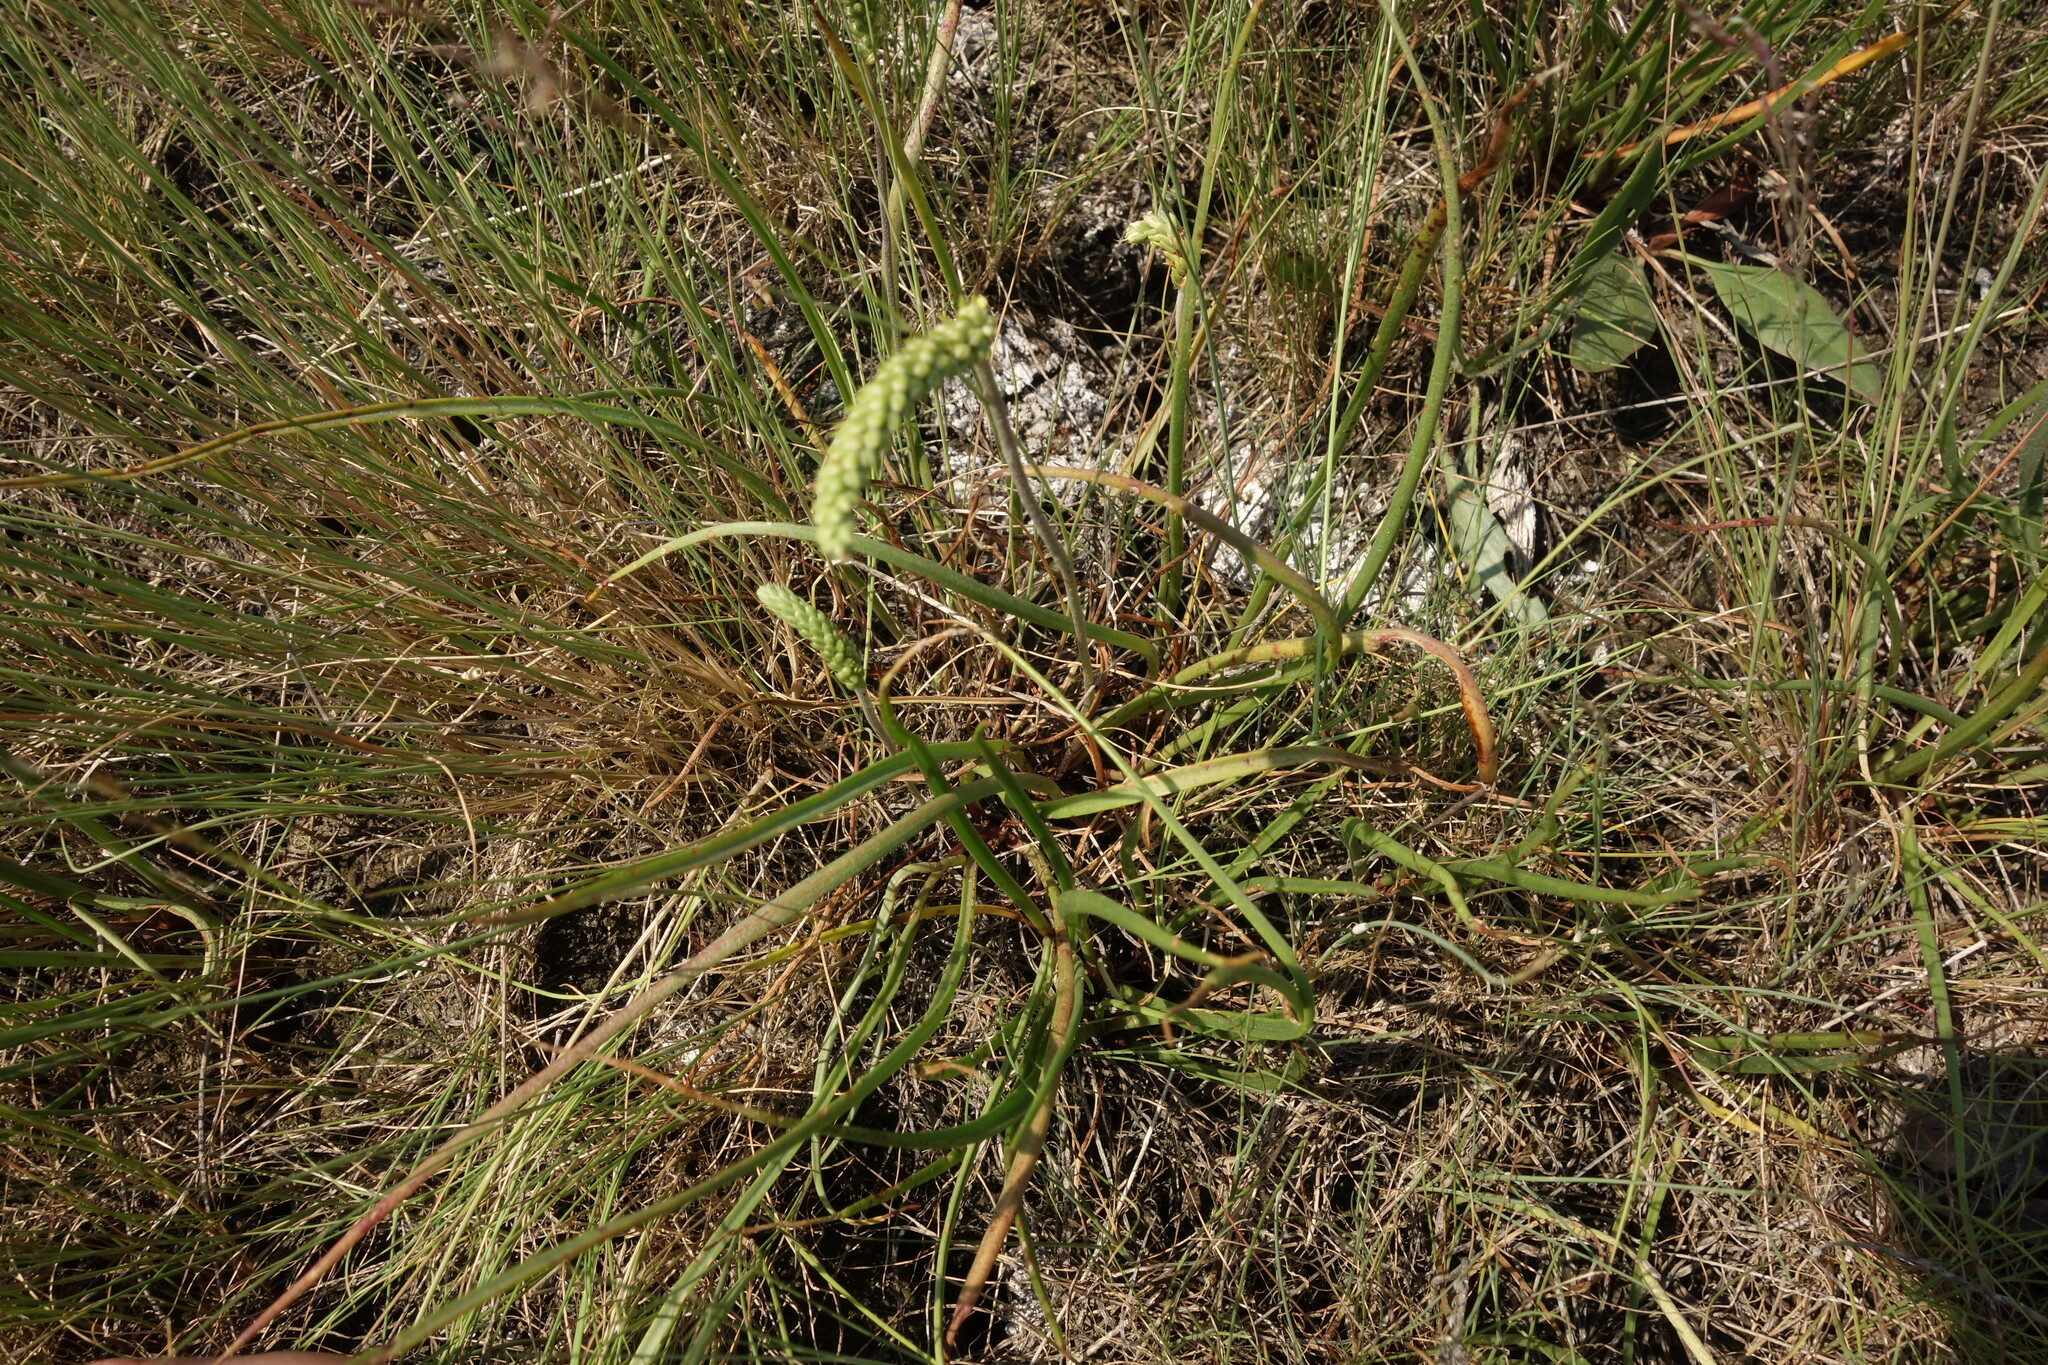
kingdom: Plantae
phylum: Tracheophyta
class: Magnoliopsida
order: Lamiales
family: Plantaginaceae
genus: Plantago
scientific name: Plantago salsa
